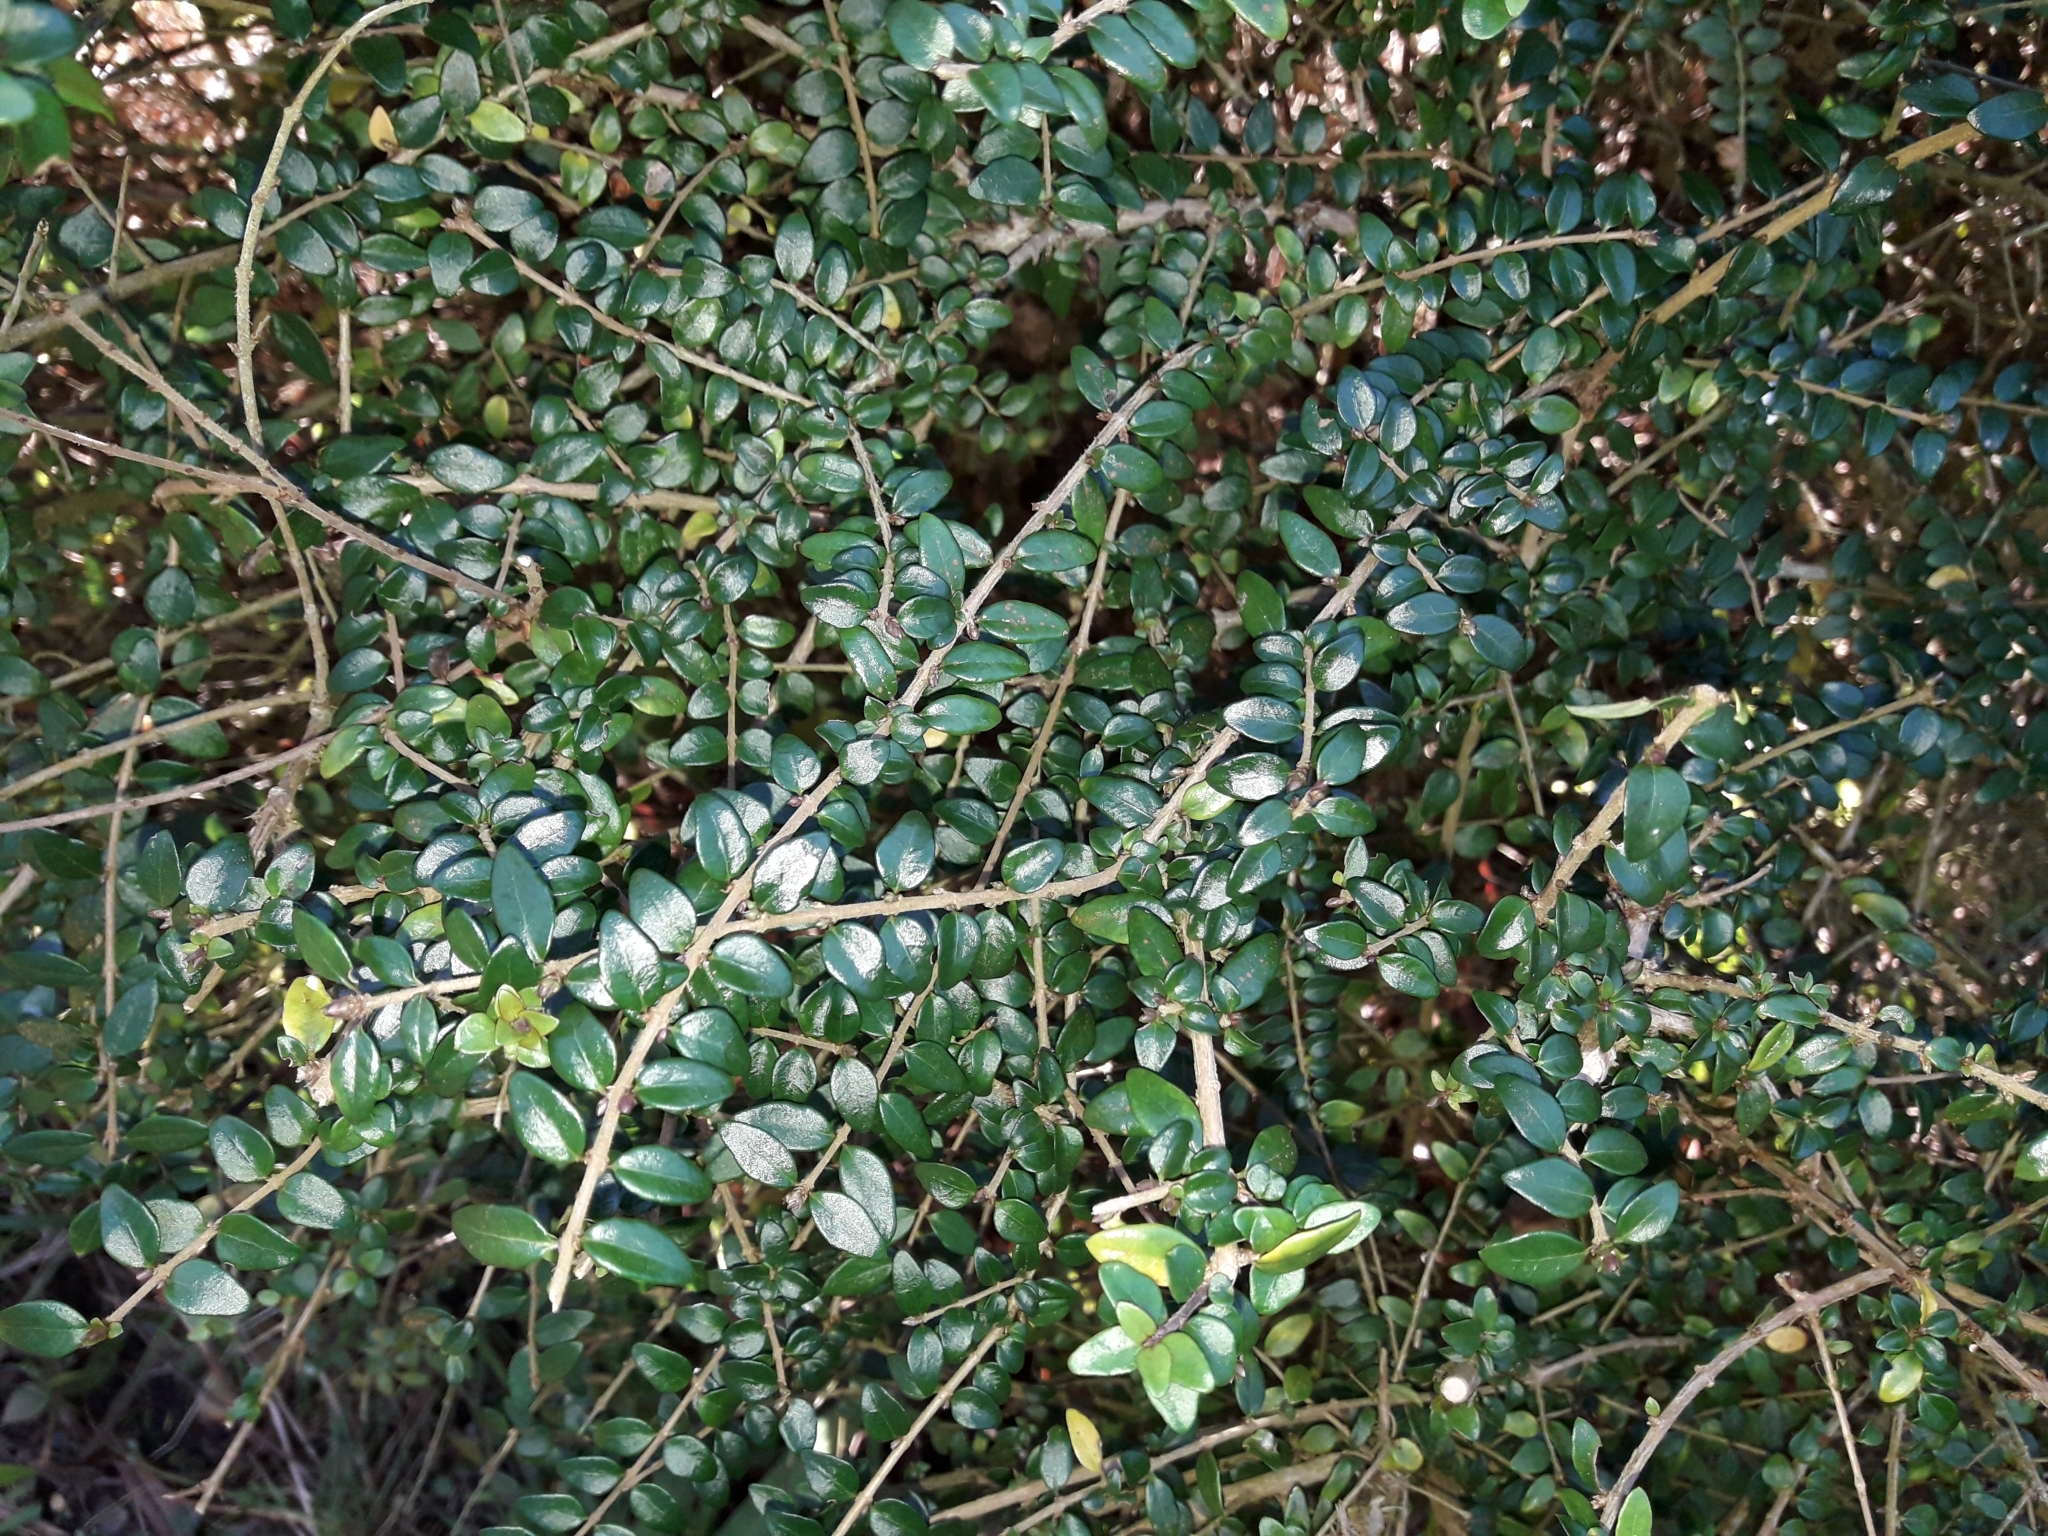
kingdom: Plantae
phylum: Tracheophyta
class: Magnoliopsida
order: Dipsacales
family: Caprifoliaceae
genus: Lonicera
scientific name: Lonicera pileata
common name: Box-leaved honeysuckle
